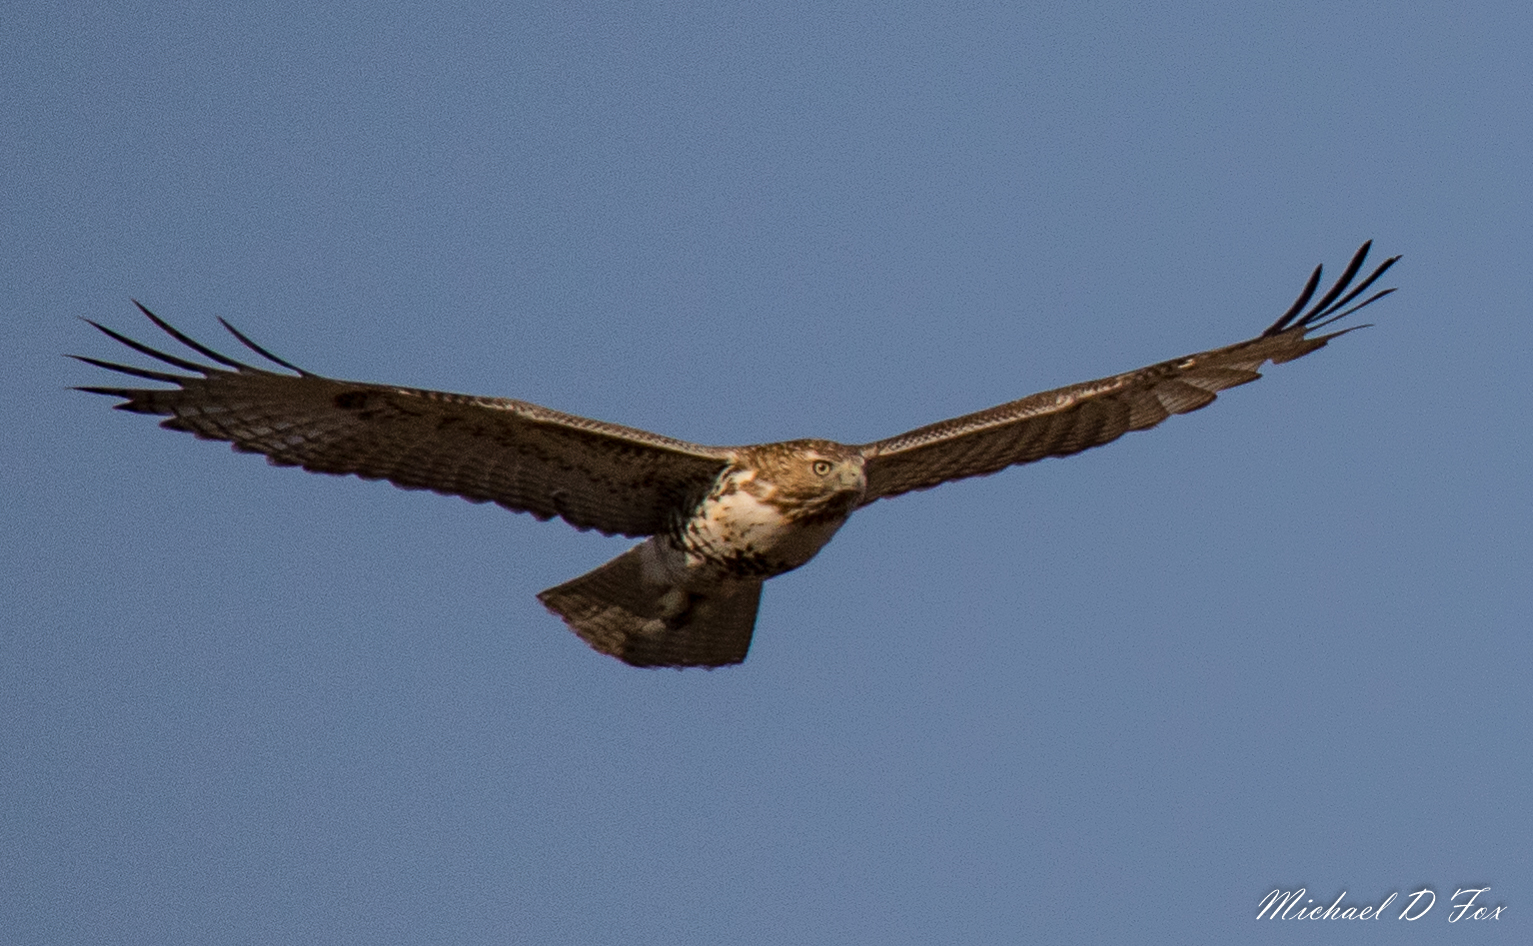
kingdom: Animalia
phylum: Chordata
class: Aves
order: Accipitriformes
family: Accipitridae
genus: Buteo
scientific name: Buteo jamaicensis
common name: Red-tailed hawk
